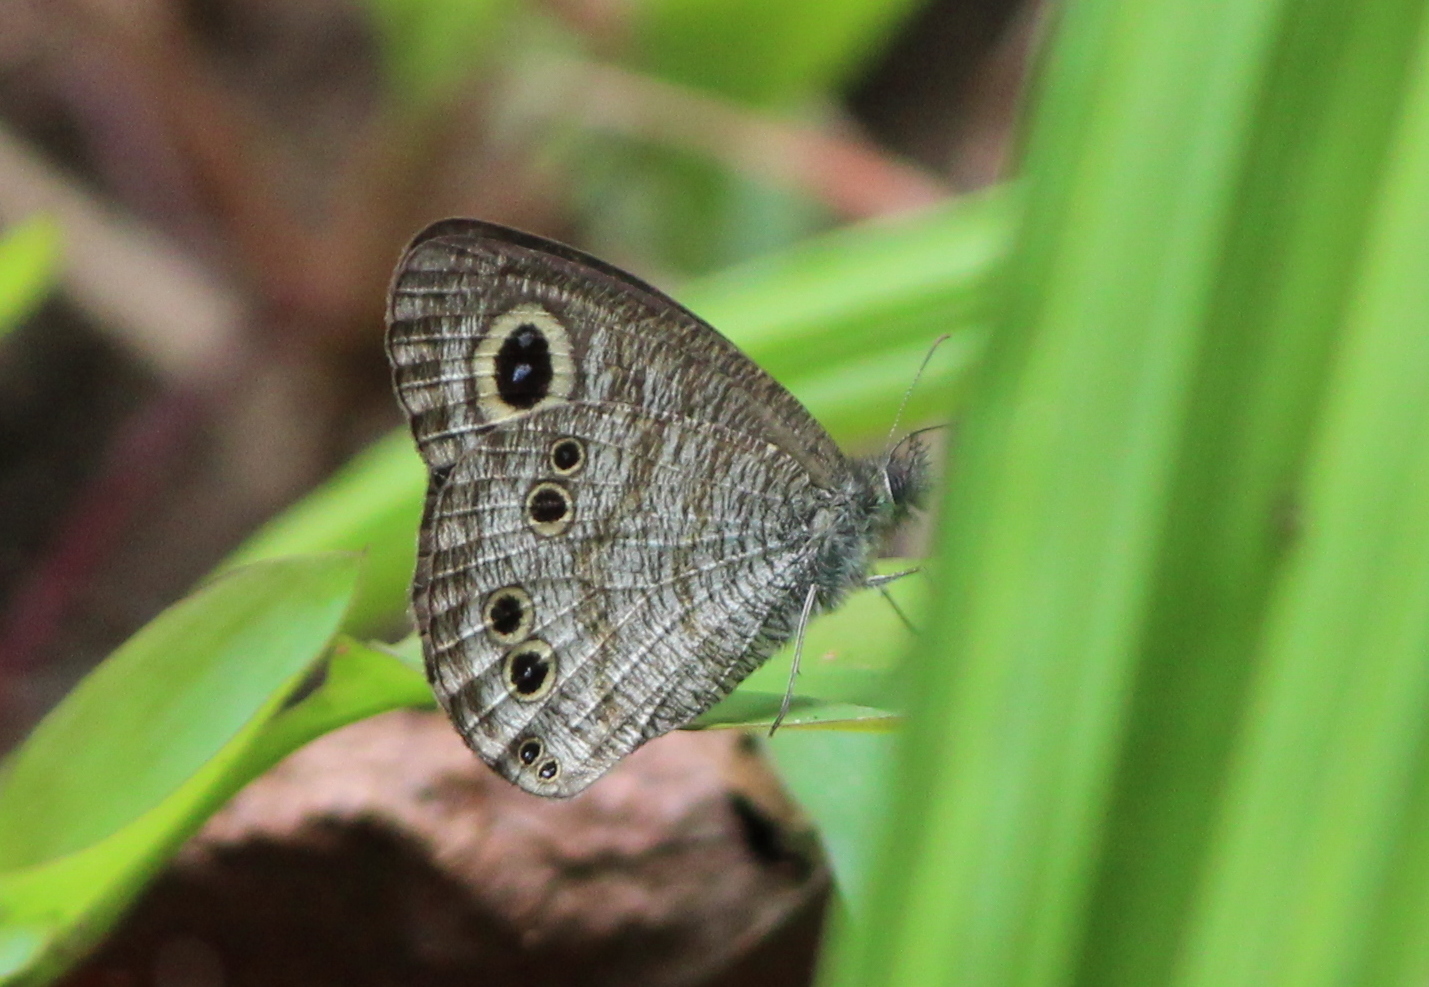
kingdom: Animalia
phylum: Arthropoda
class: Insecta
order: Lepidoptera
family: Nymphalidae
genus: Ypthima
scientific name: Ypthima baldus
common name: Common five-ring
